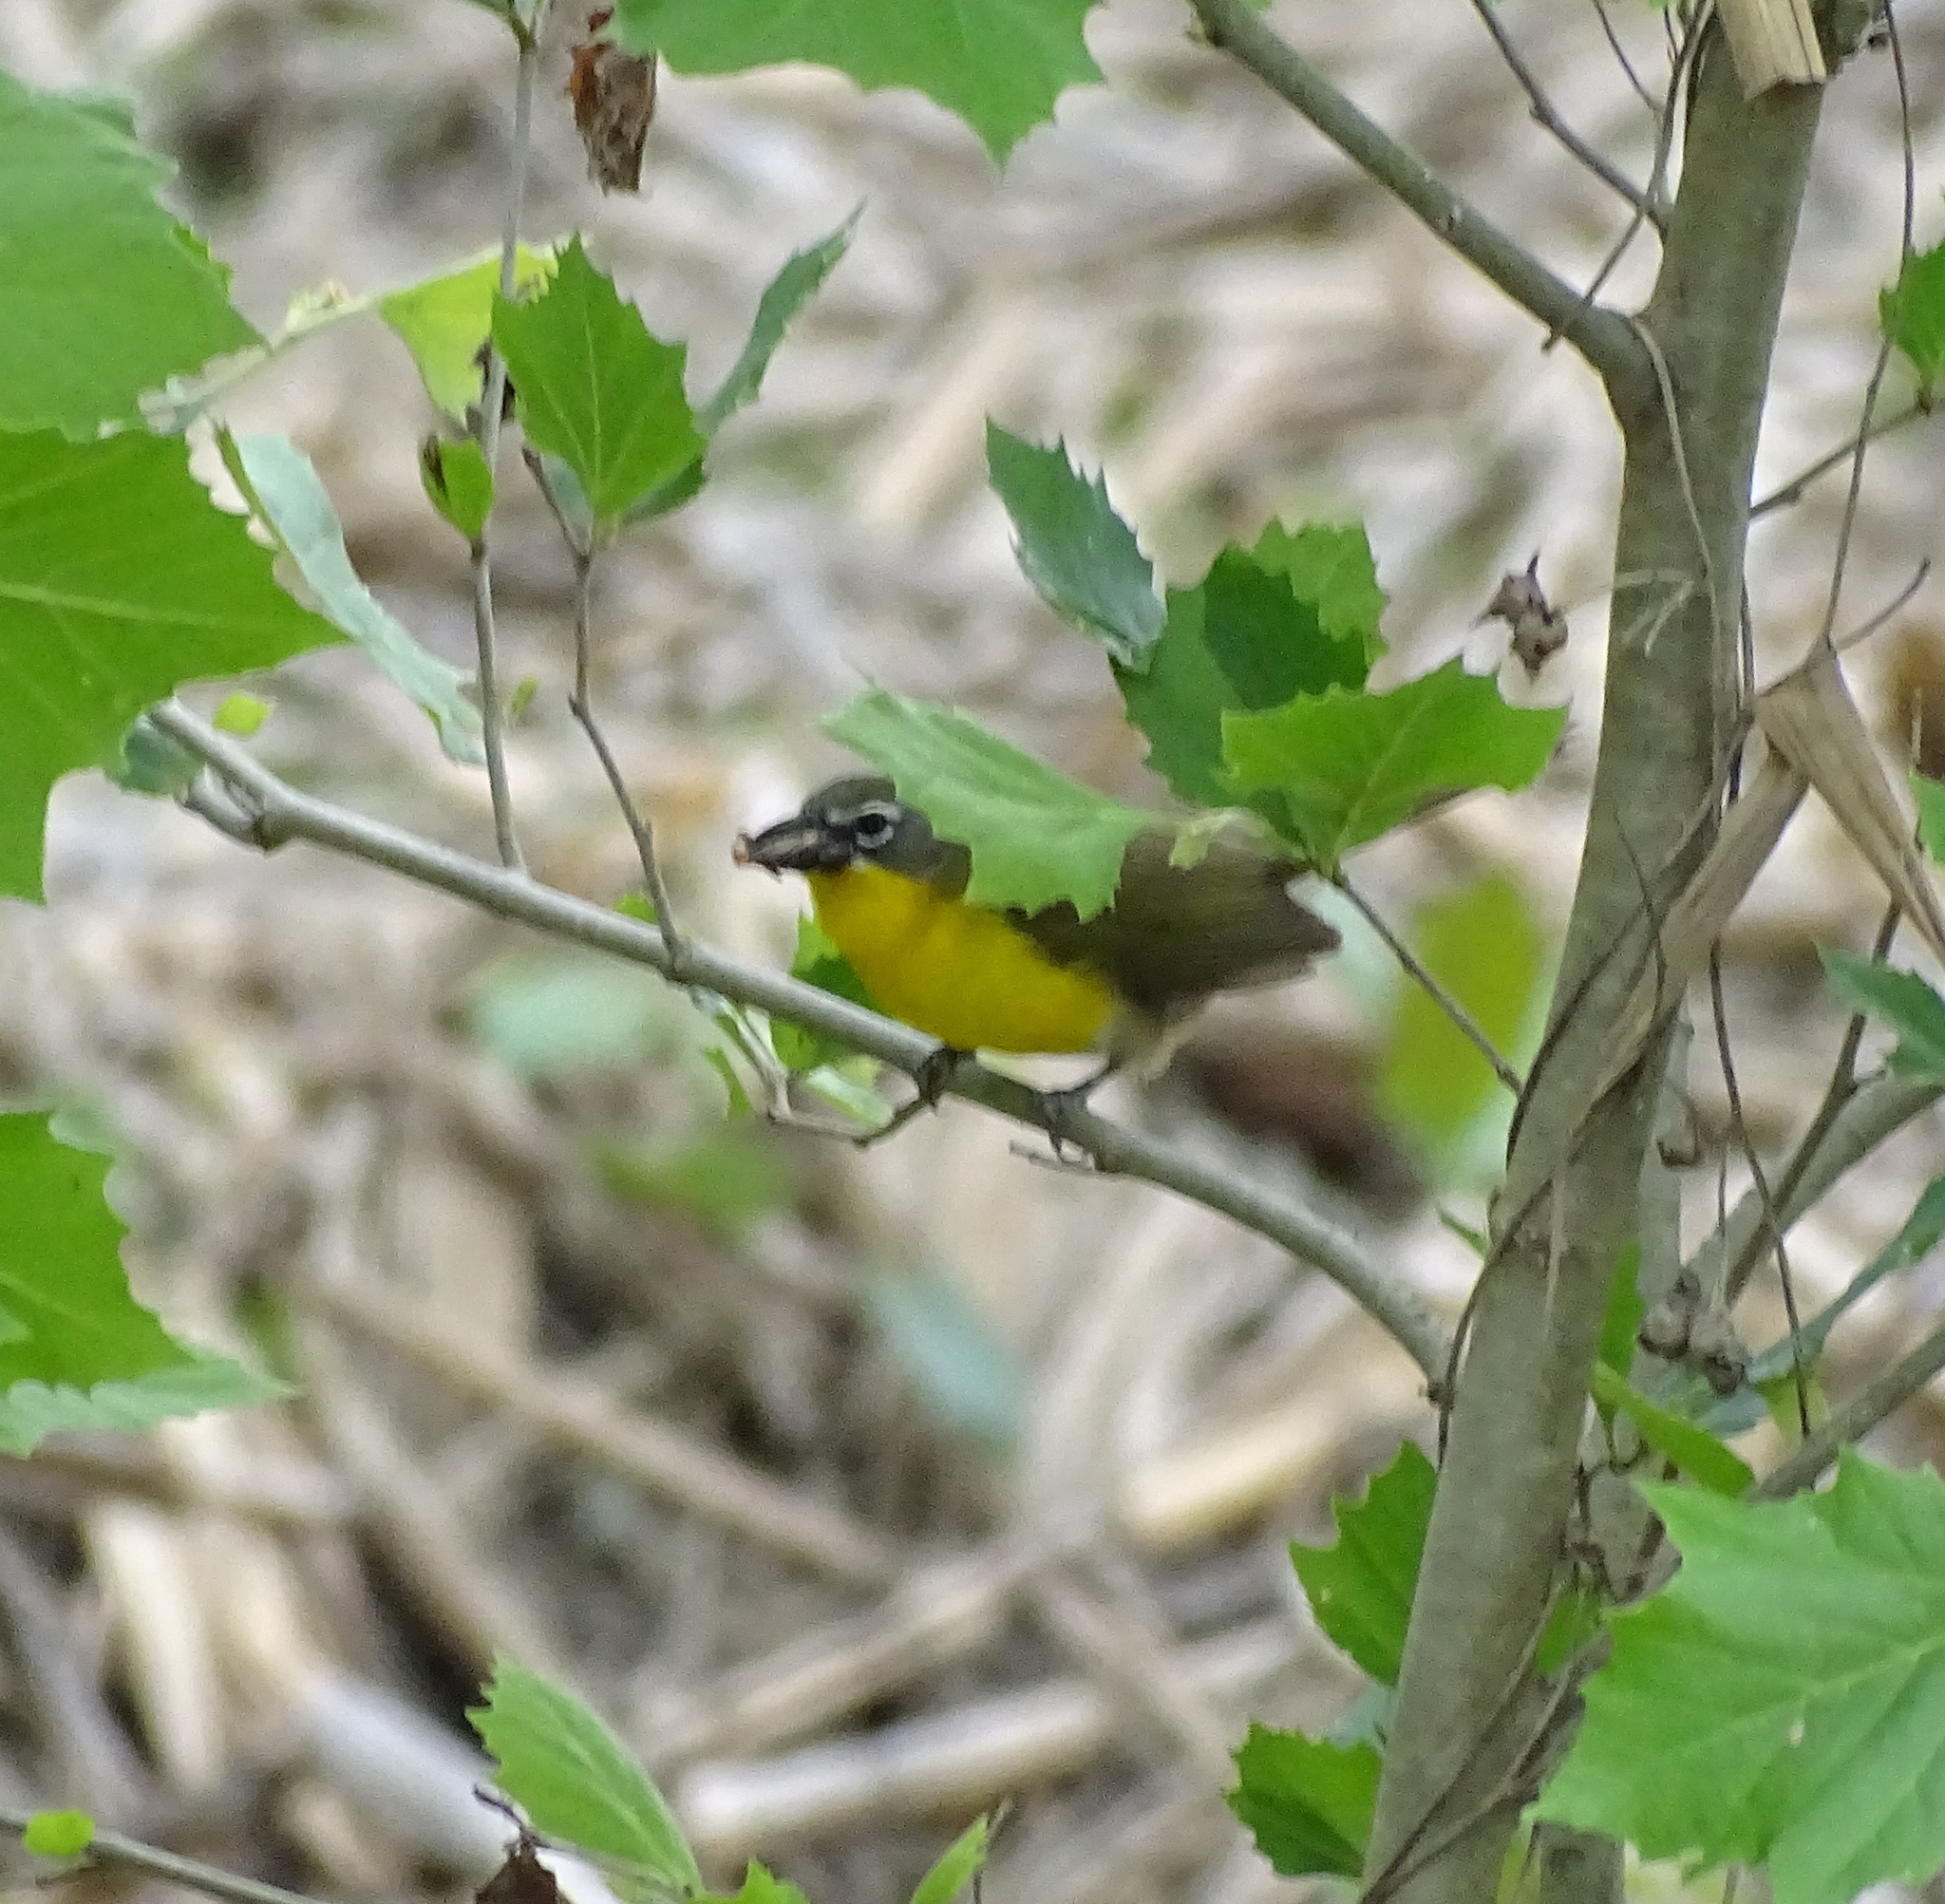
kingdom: Animalia
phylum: Chordata
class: Aves
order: Passeriformes
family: Parulidae
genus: Icteria
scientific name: Icteria virens
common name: Yellow-breasted chat
